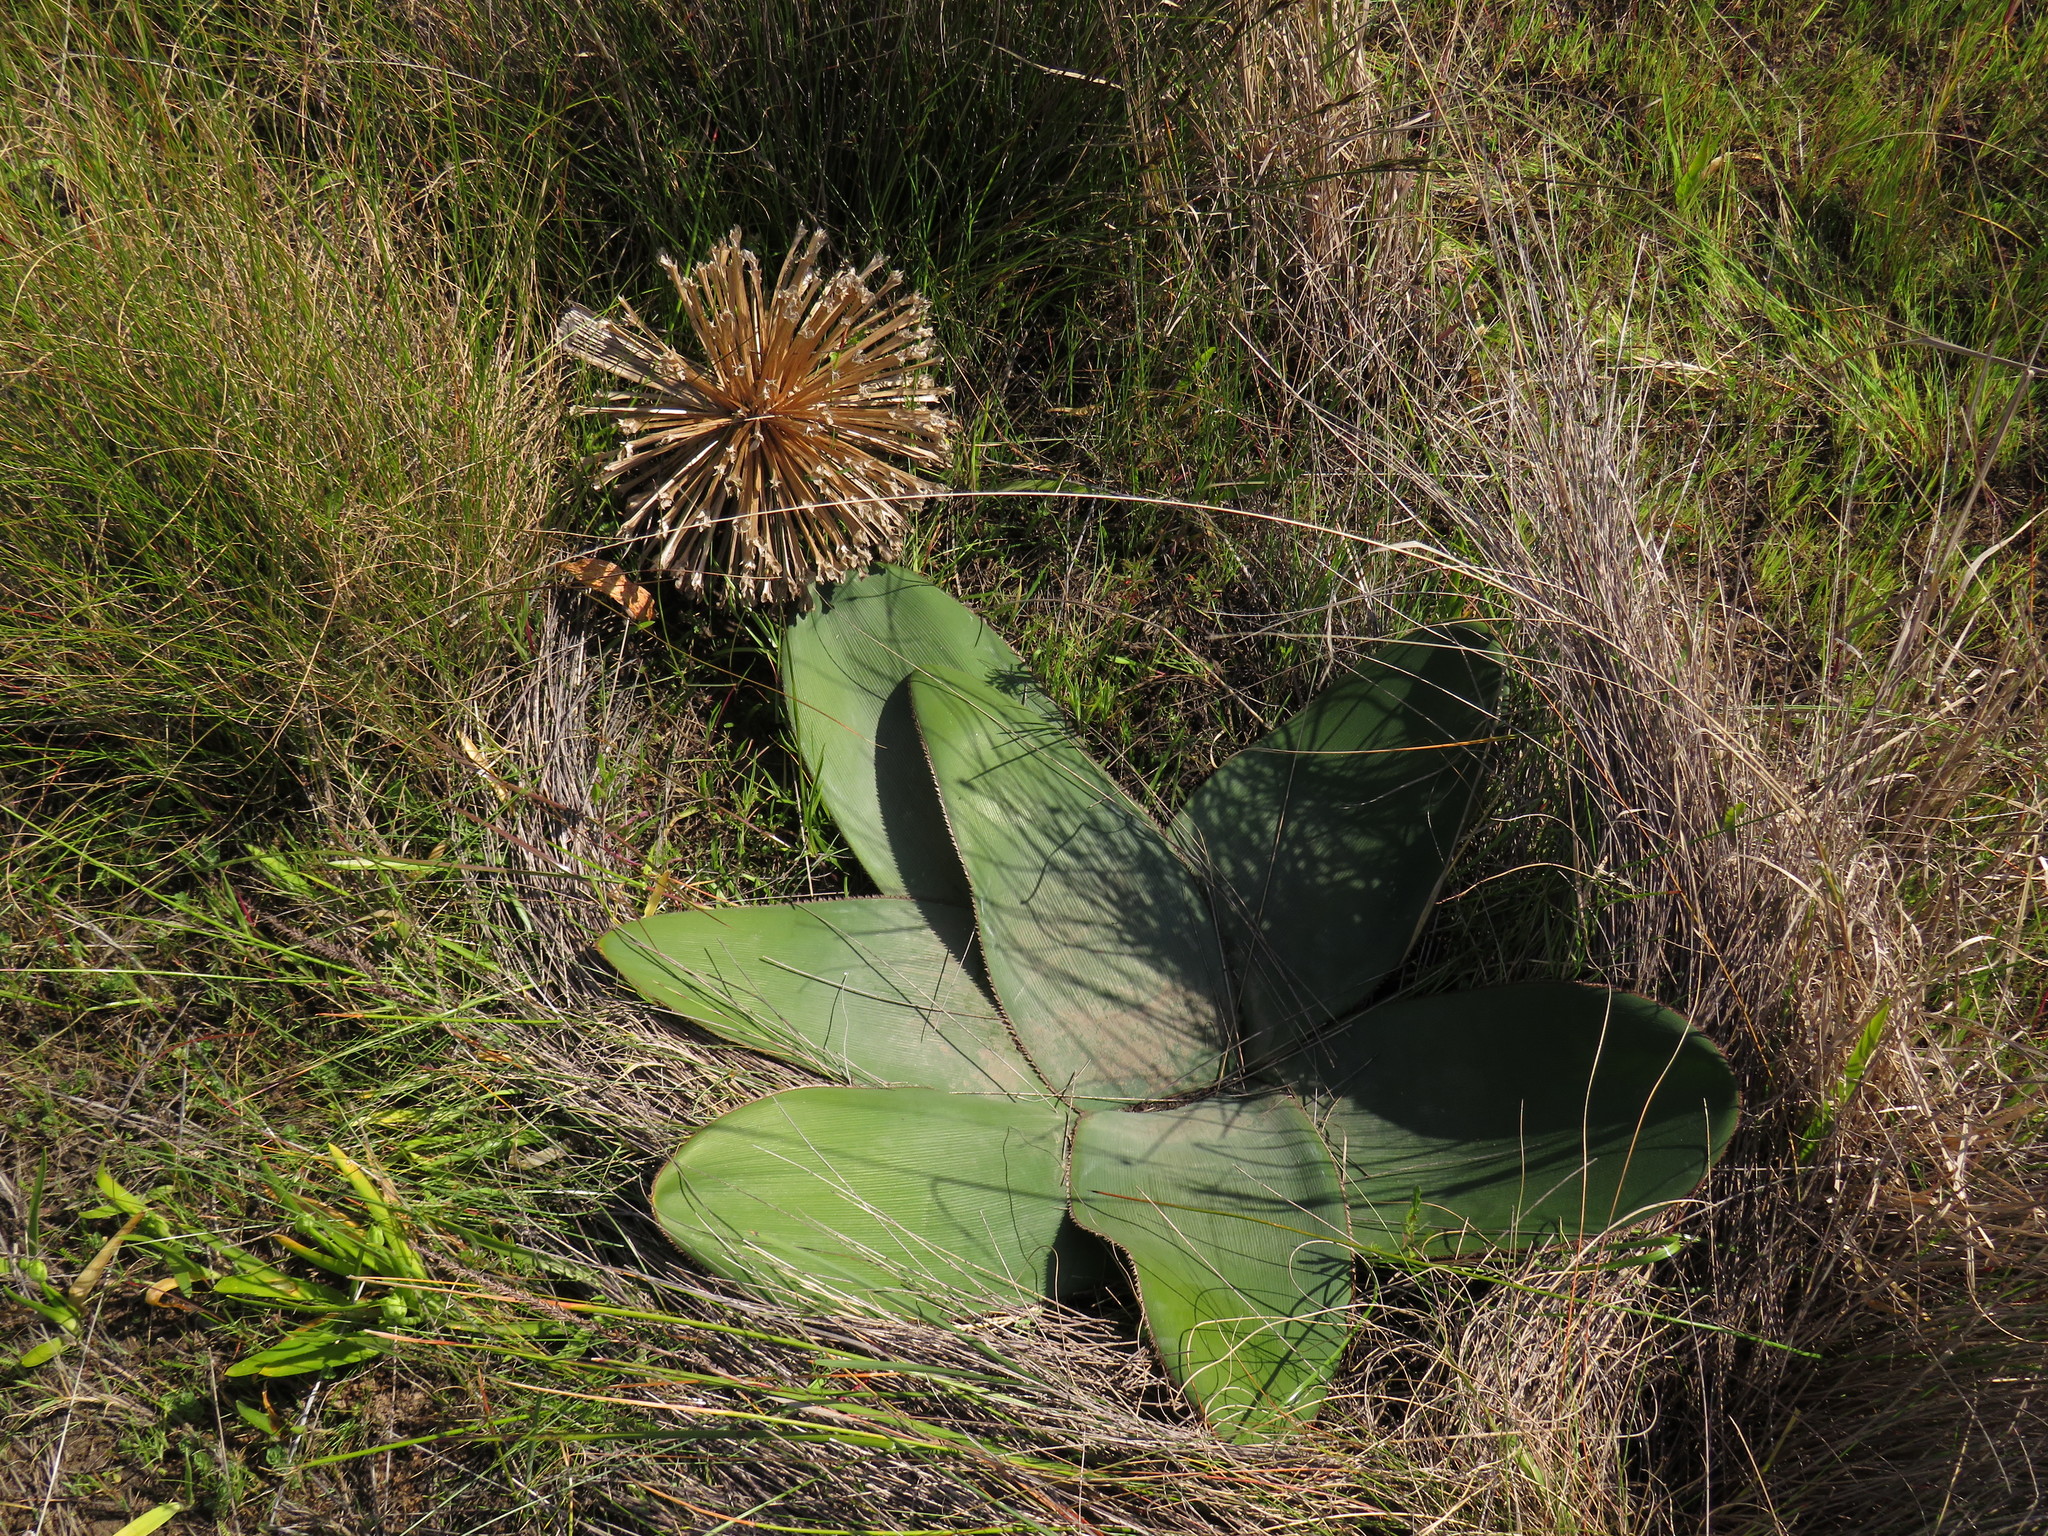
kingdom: Plantae
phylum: Tracheophyta
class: Liliopsida
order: Asparagales
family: Amaryllidaceae
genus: Crossyne
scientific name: Crossyne guttata
